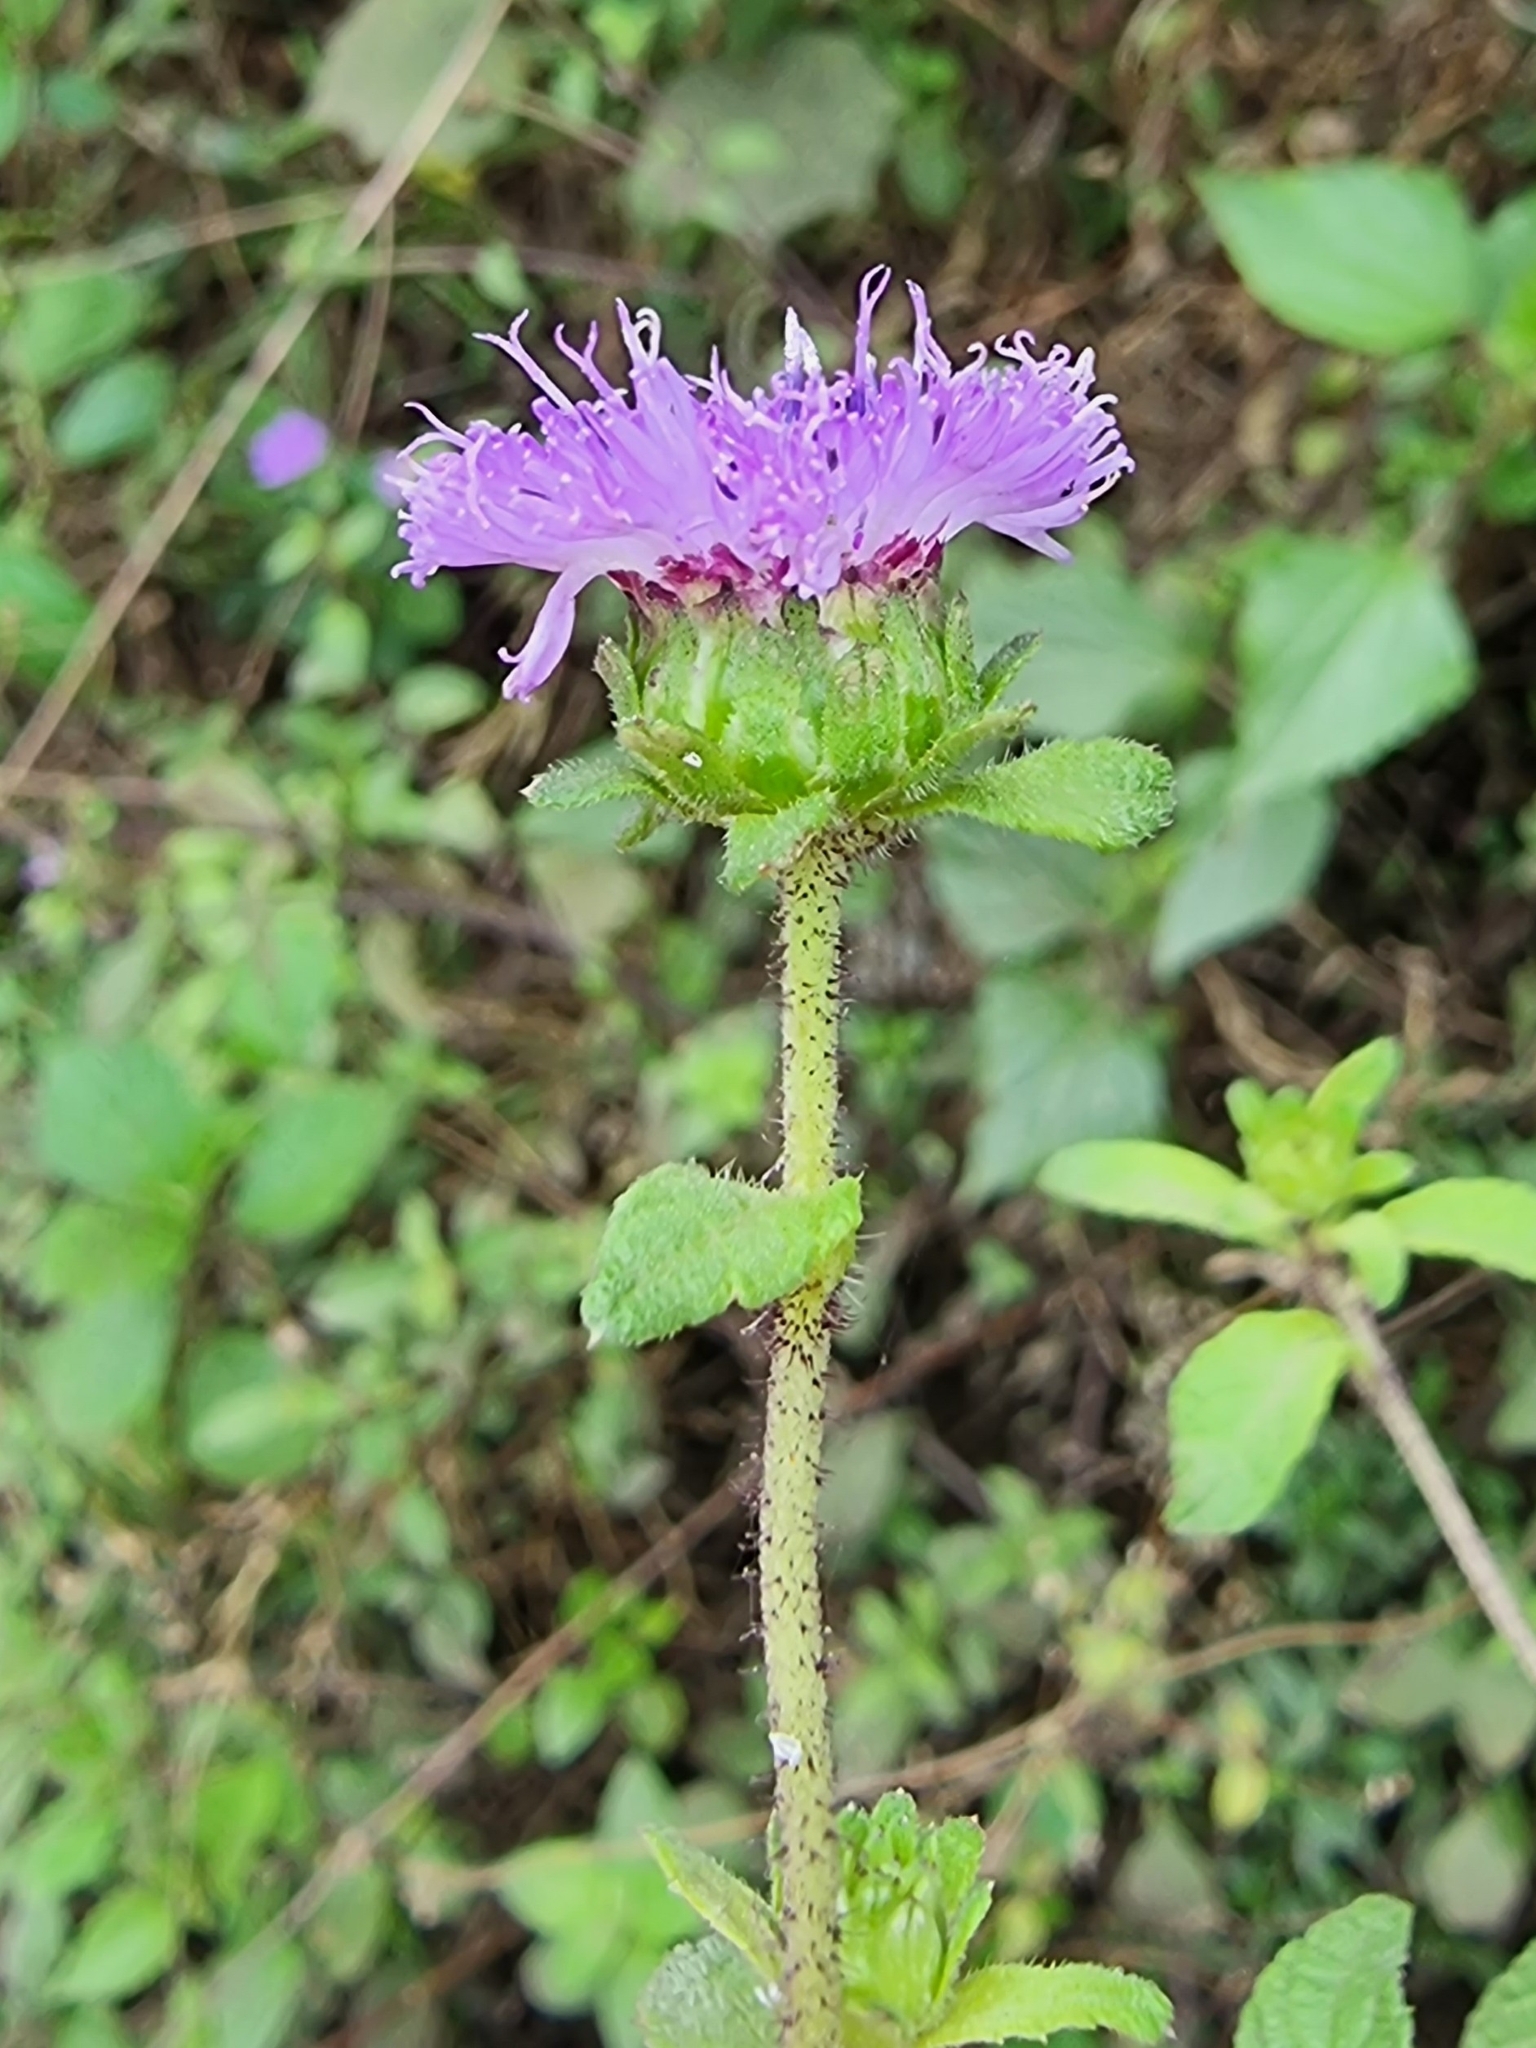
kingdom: Plantae
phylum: Tracheophyta
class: Magnoliopsida
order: Asterales
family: Asteraceae
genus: Centratherum
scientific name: Centratherum punctatum
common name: Larkdaisy
